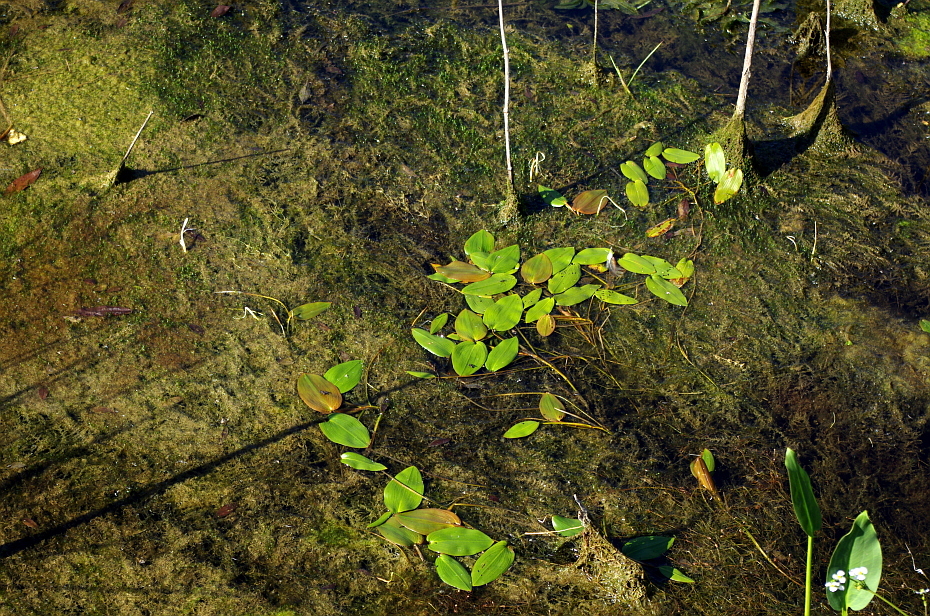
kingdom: Plantae
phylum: Tracheophyta
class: Liliopsida
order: Alismatales
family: Potamogetonaceae
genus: Potamogeton
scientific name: Potamogeton natans
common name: Broad-leaved pondweed
